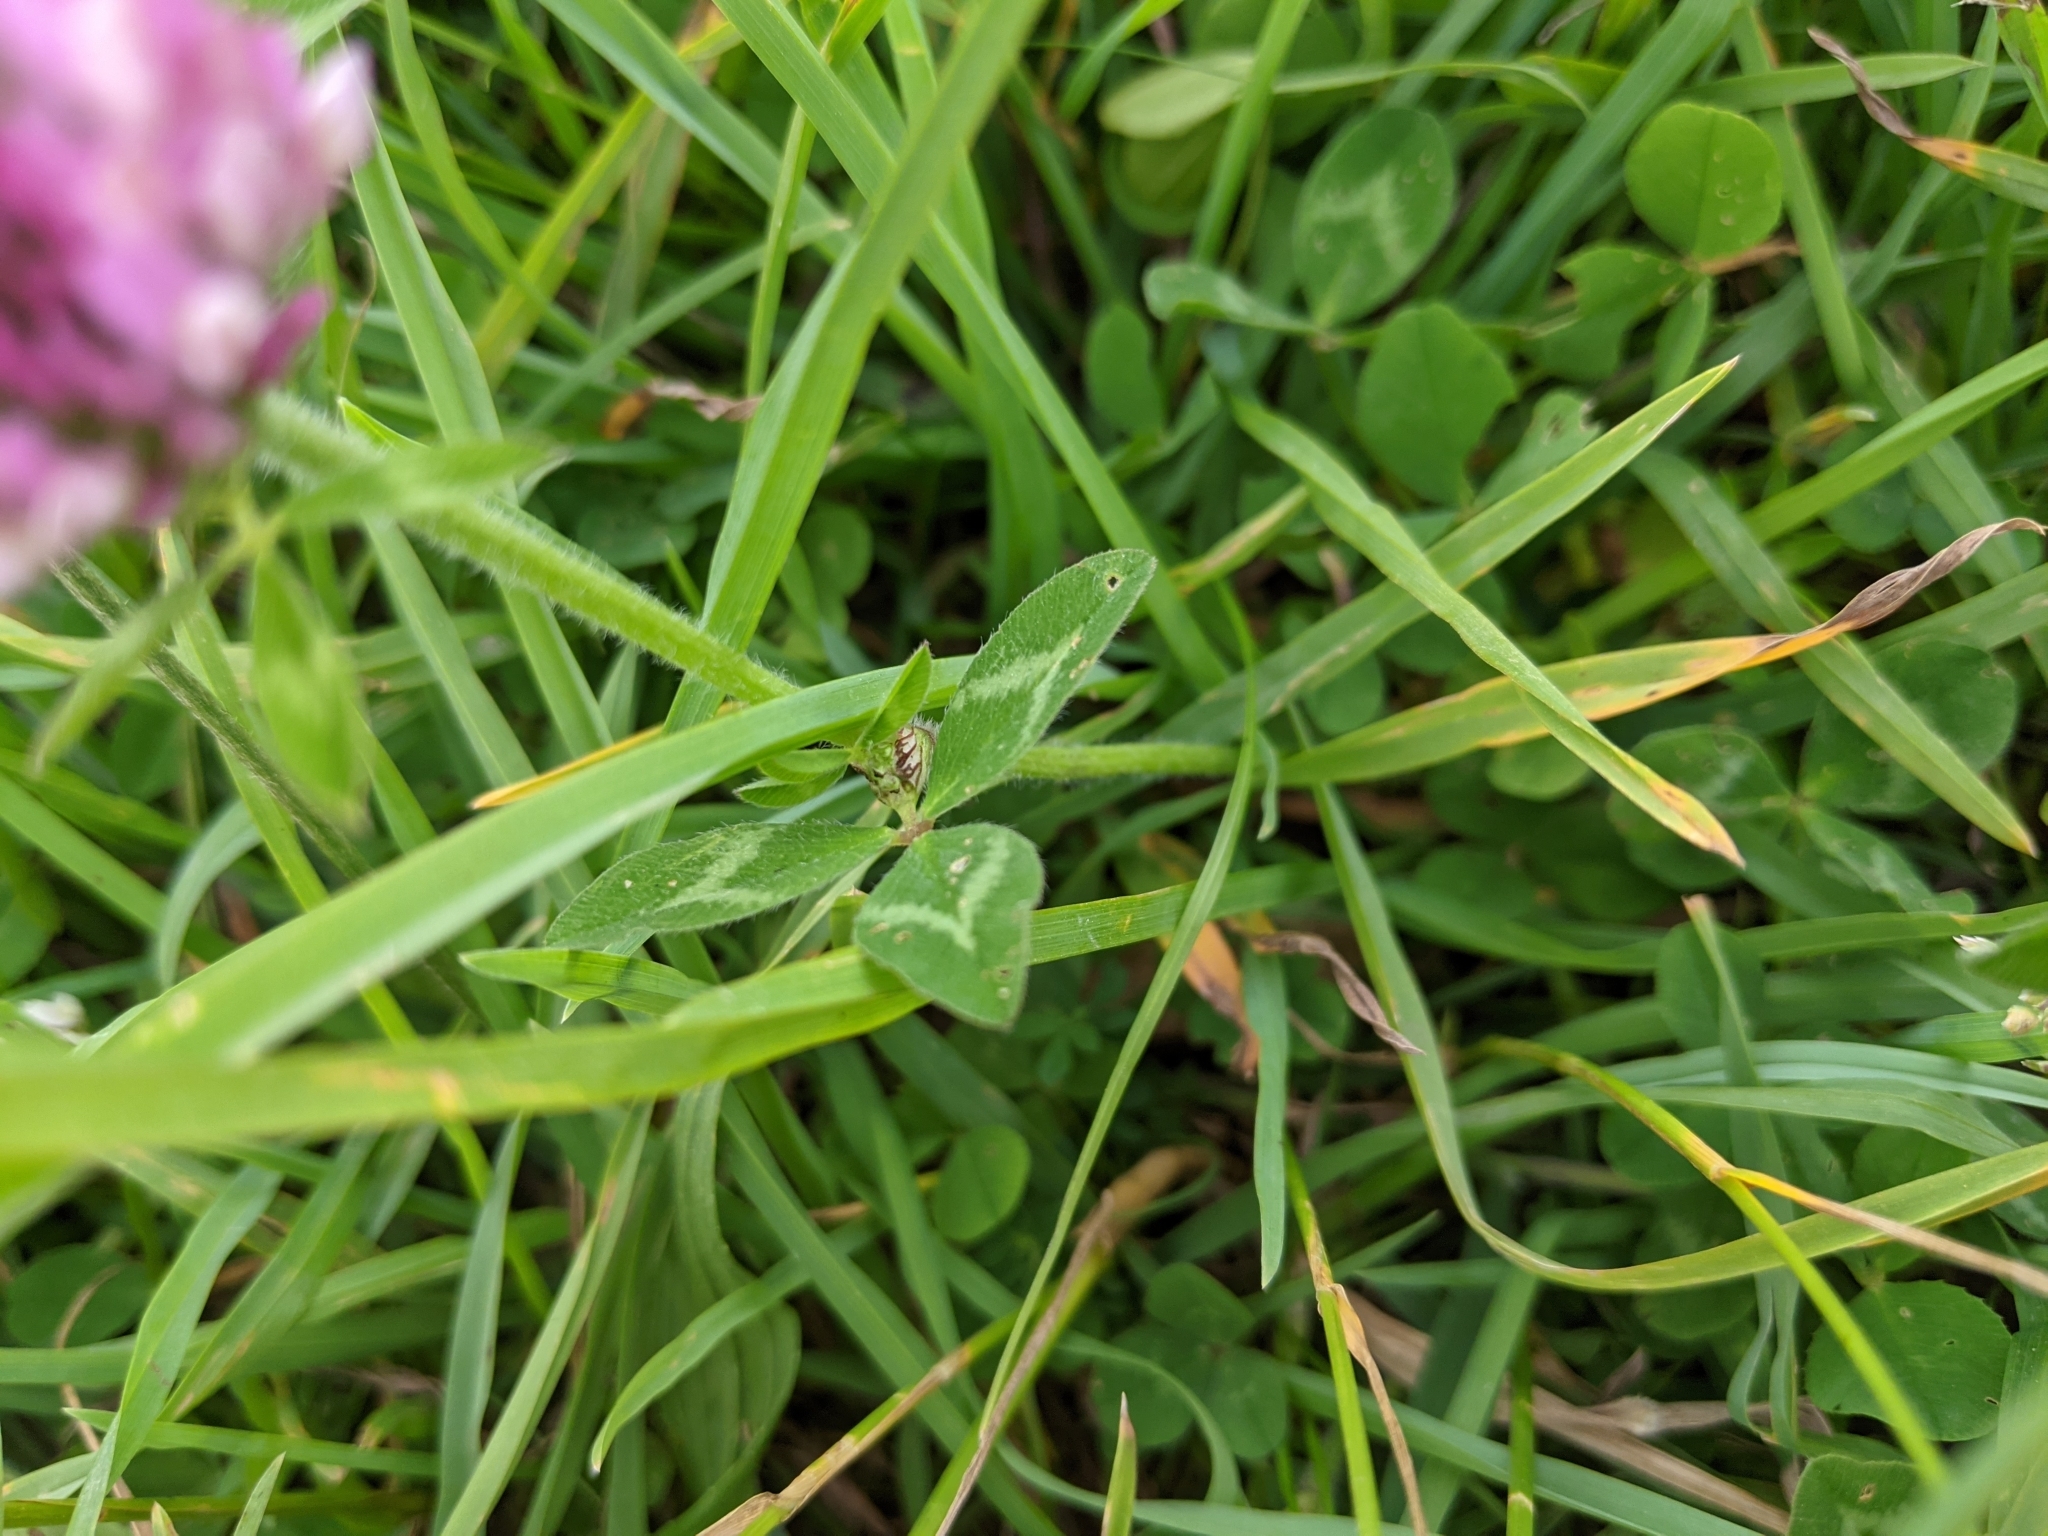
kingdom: Plantae
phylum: Tracheophyta
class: Magnoliopsida
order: Fabales
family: Fabaceae
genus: Trifolium
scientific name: Trifolium pratense
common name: Red clover
